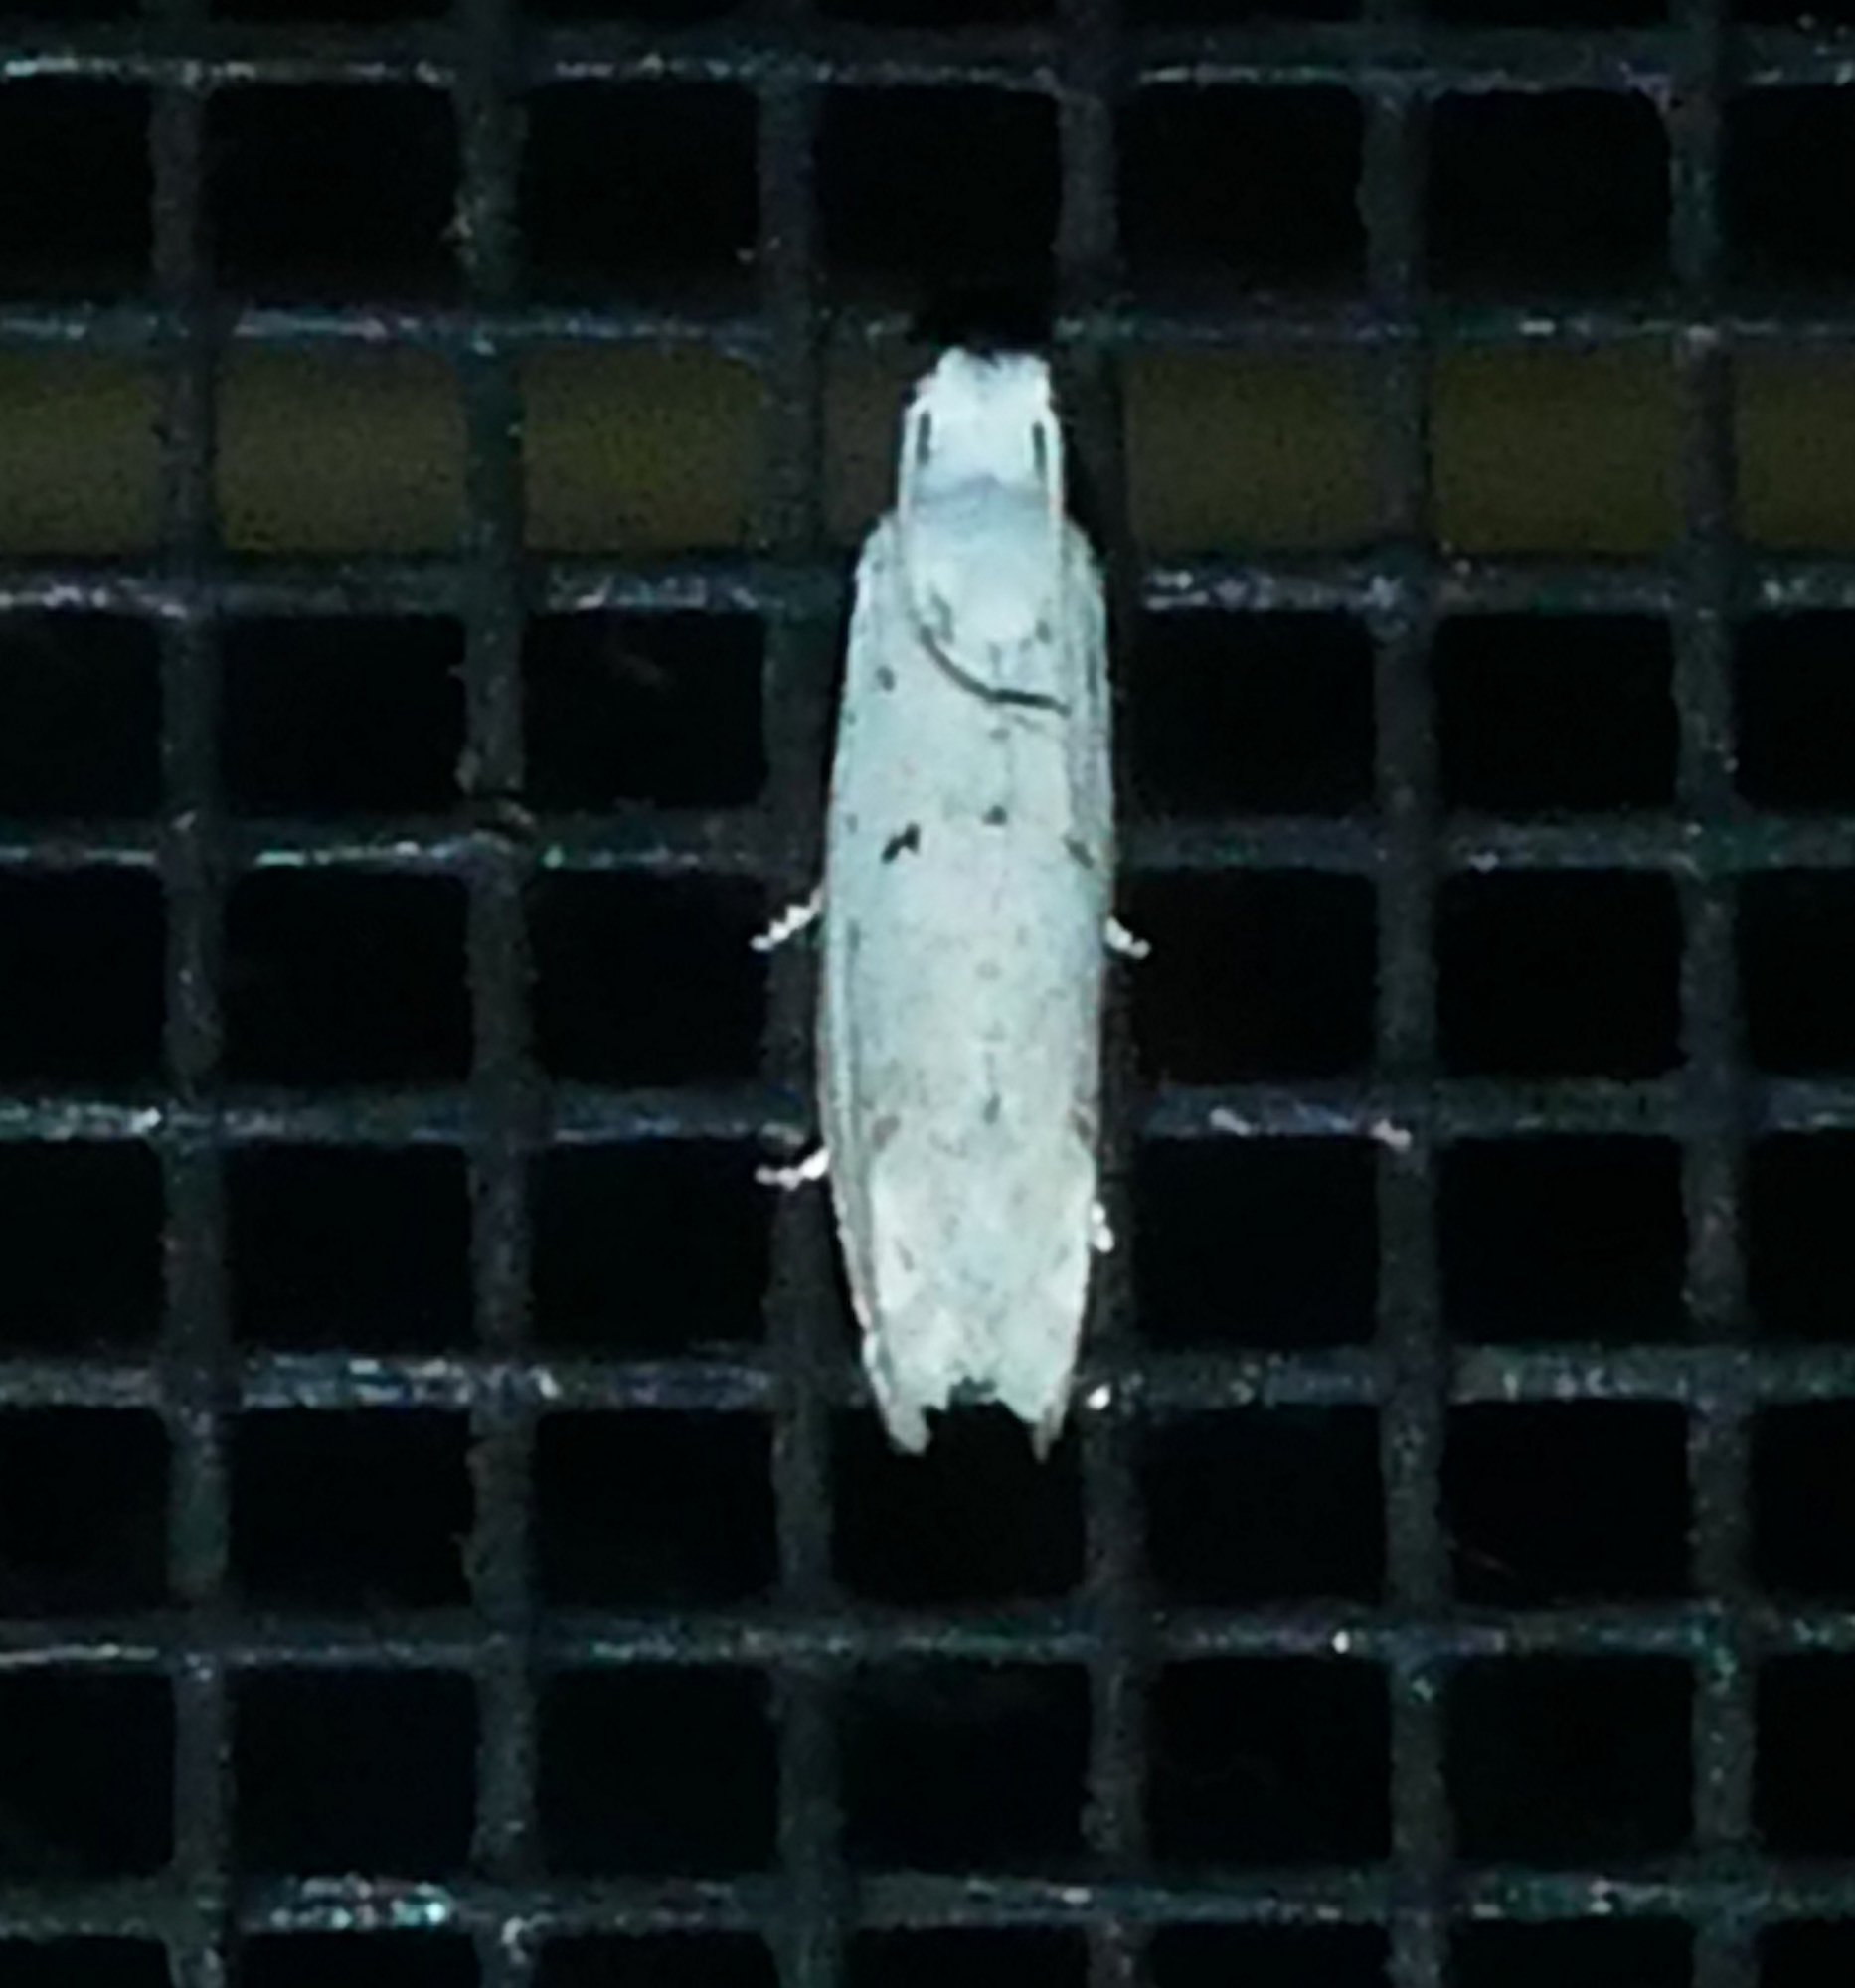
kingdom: Animalia
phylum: Arthropoda
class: Insecta
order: Lepidoptera
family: Tortricidae
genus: Epiblema
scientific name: Epiblema separationis
